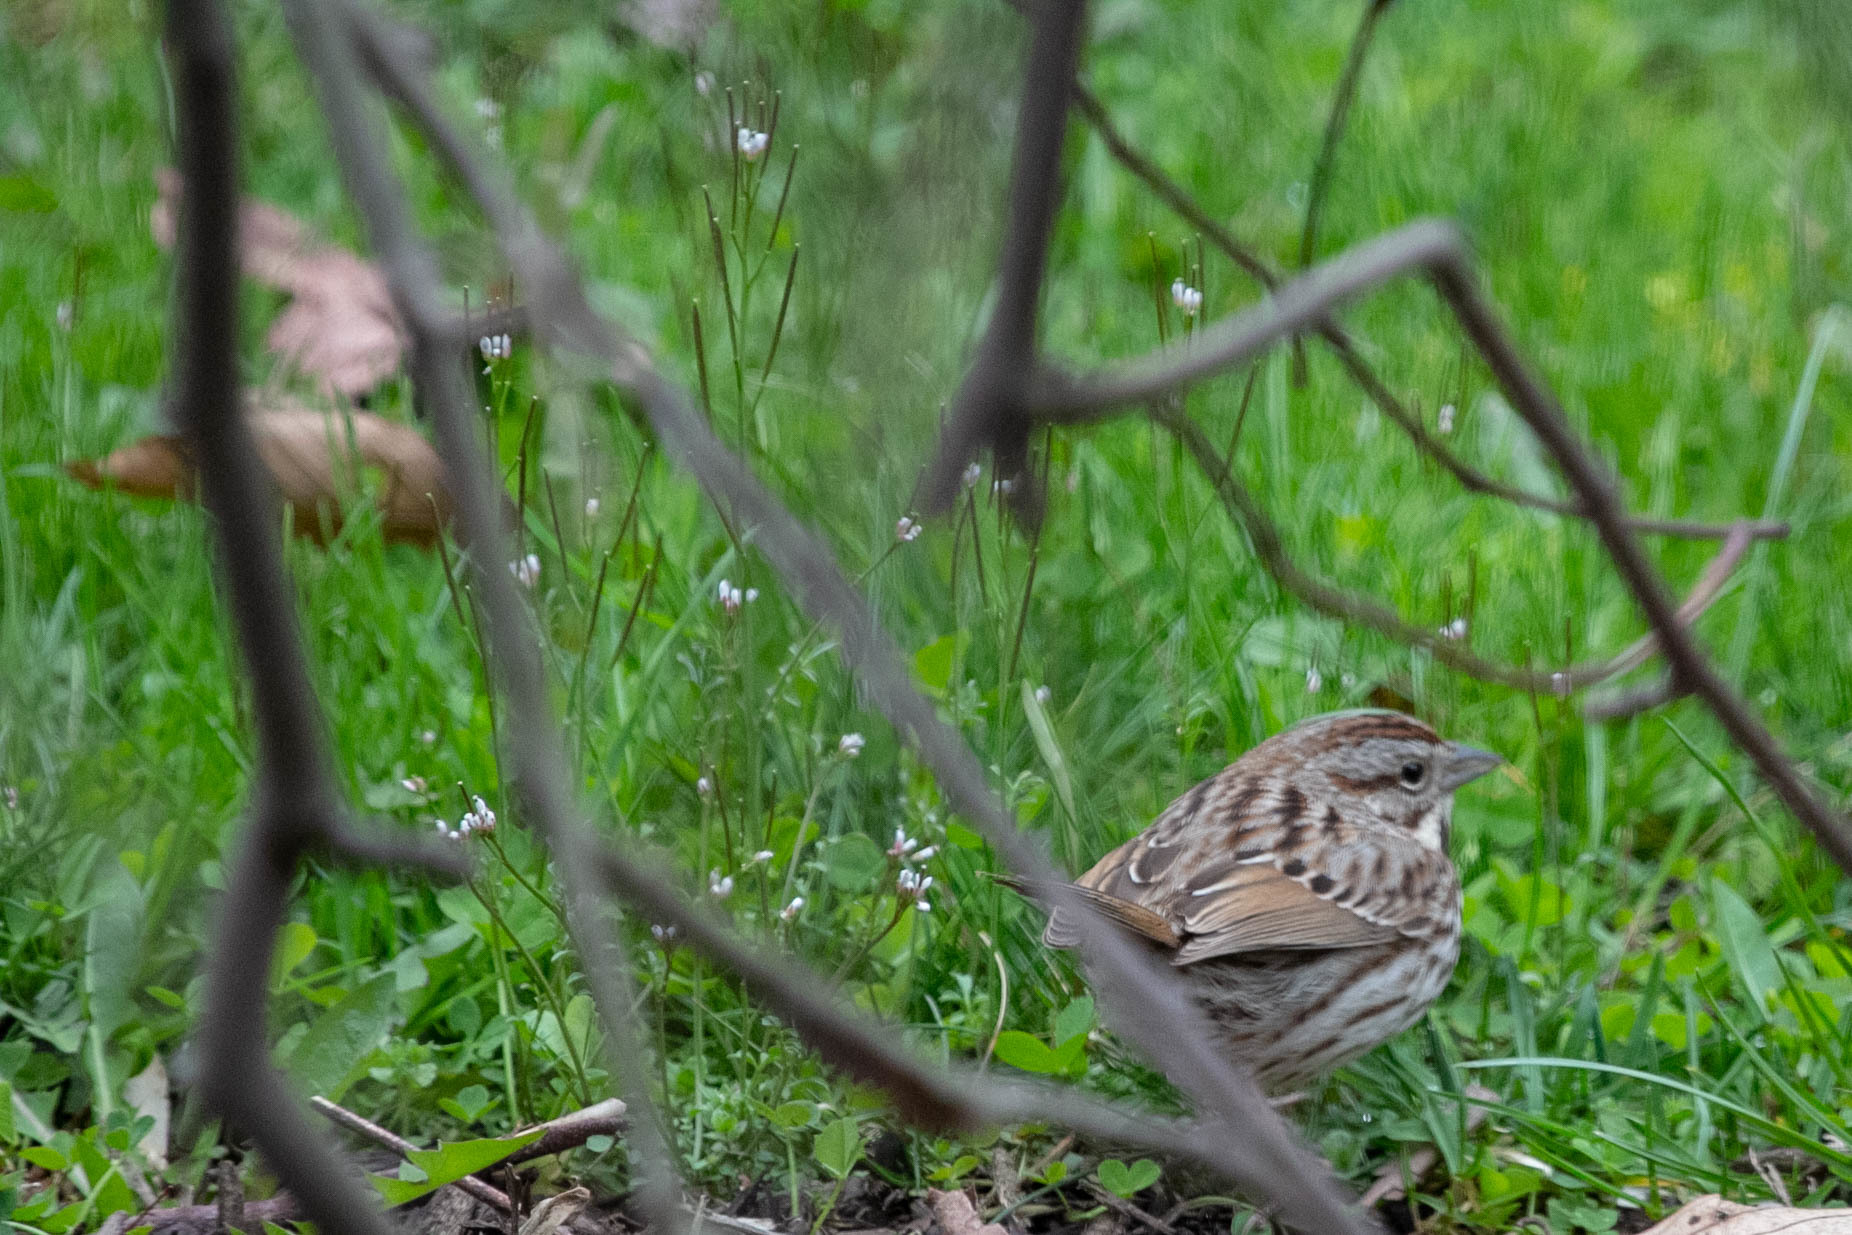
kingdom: Animalia
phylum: Chordata
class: Aves
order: Passeriformes
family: Passerellidae
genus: Melospiza
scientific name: Melospiza melodia
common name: Song sparrow
